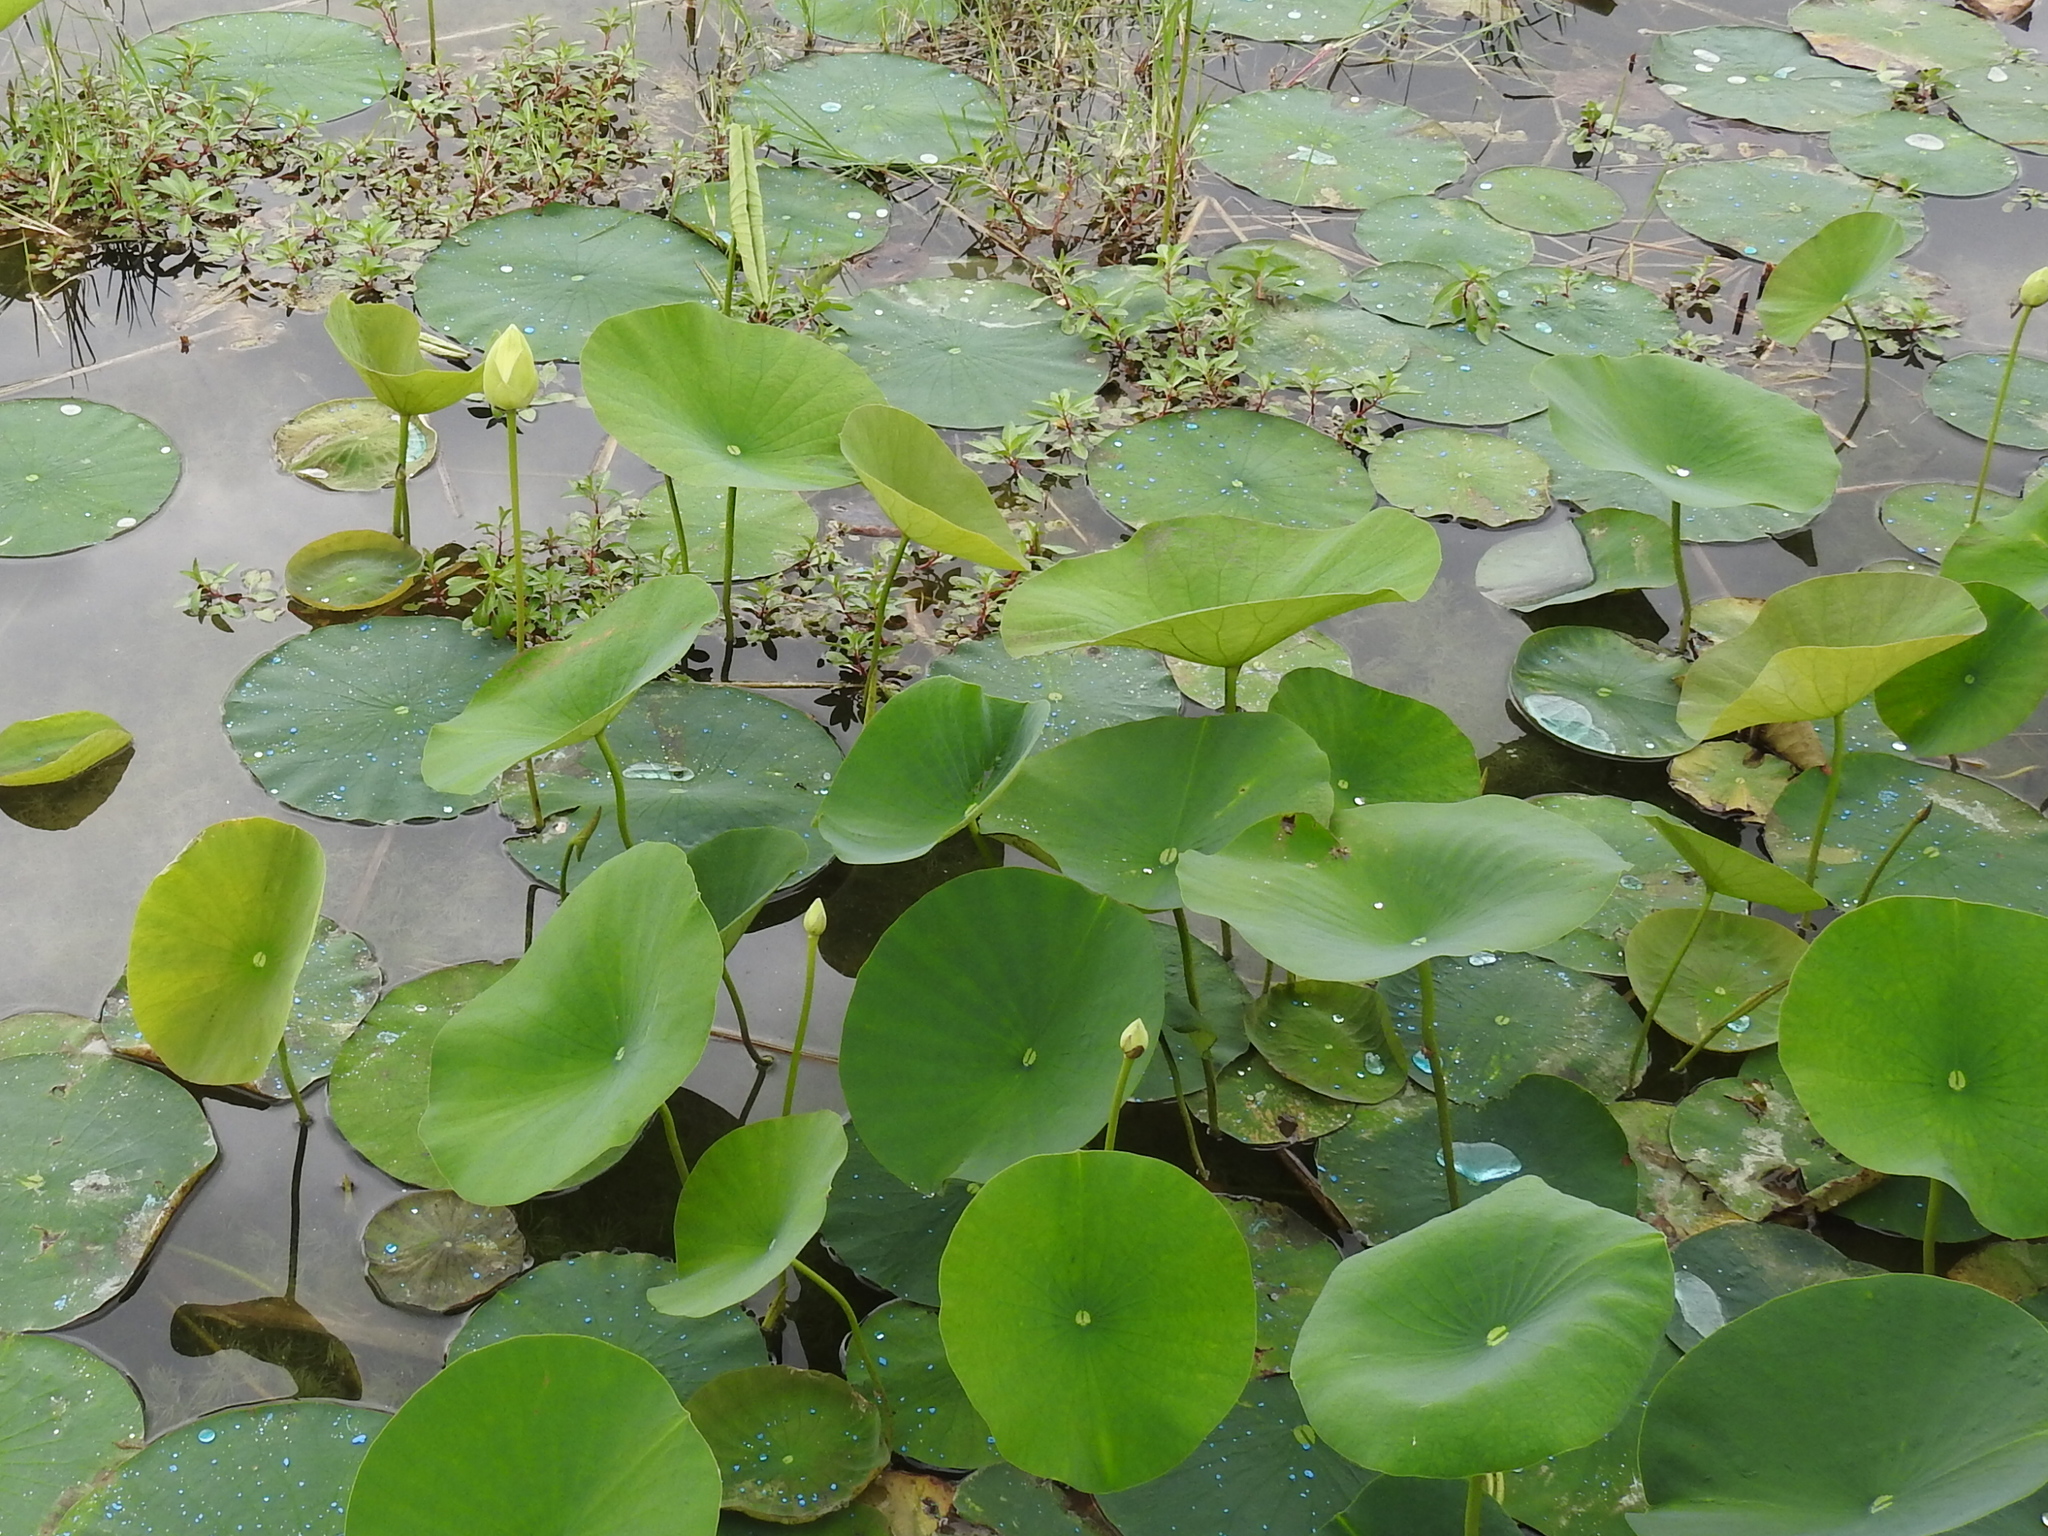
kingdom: Plantae
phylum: Tracheophyta
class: Magnoliopsida
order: Proteales
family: Nelumbonaceae
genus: Nelumbo
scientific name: Nelumbo lutea
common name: American lotus
